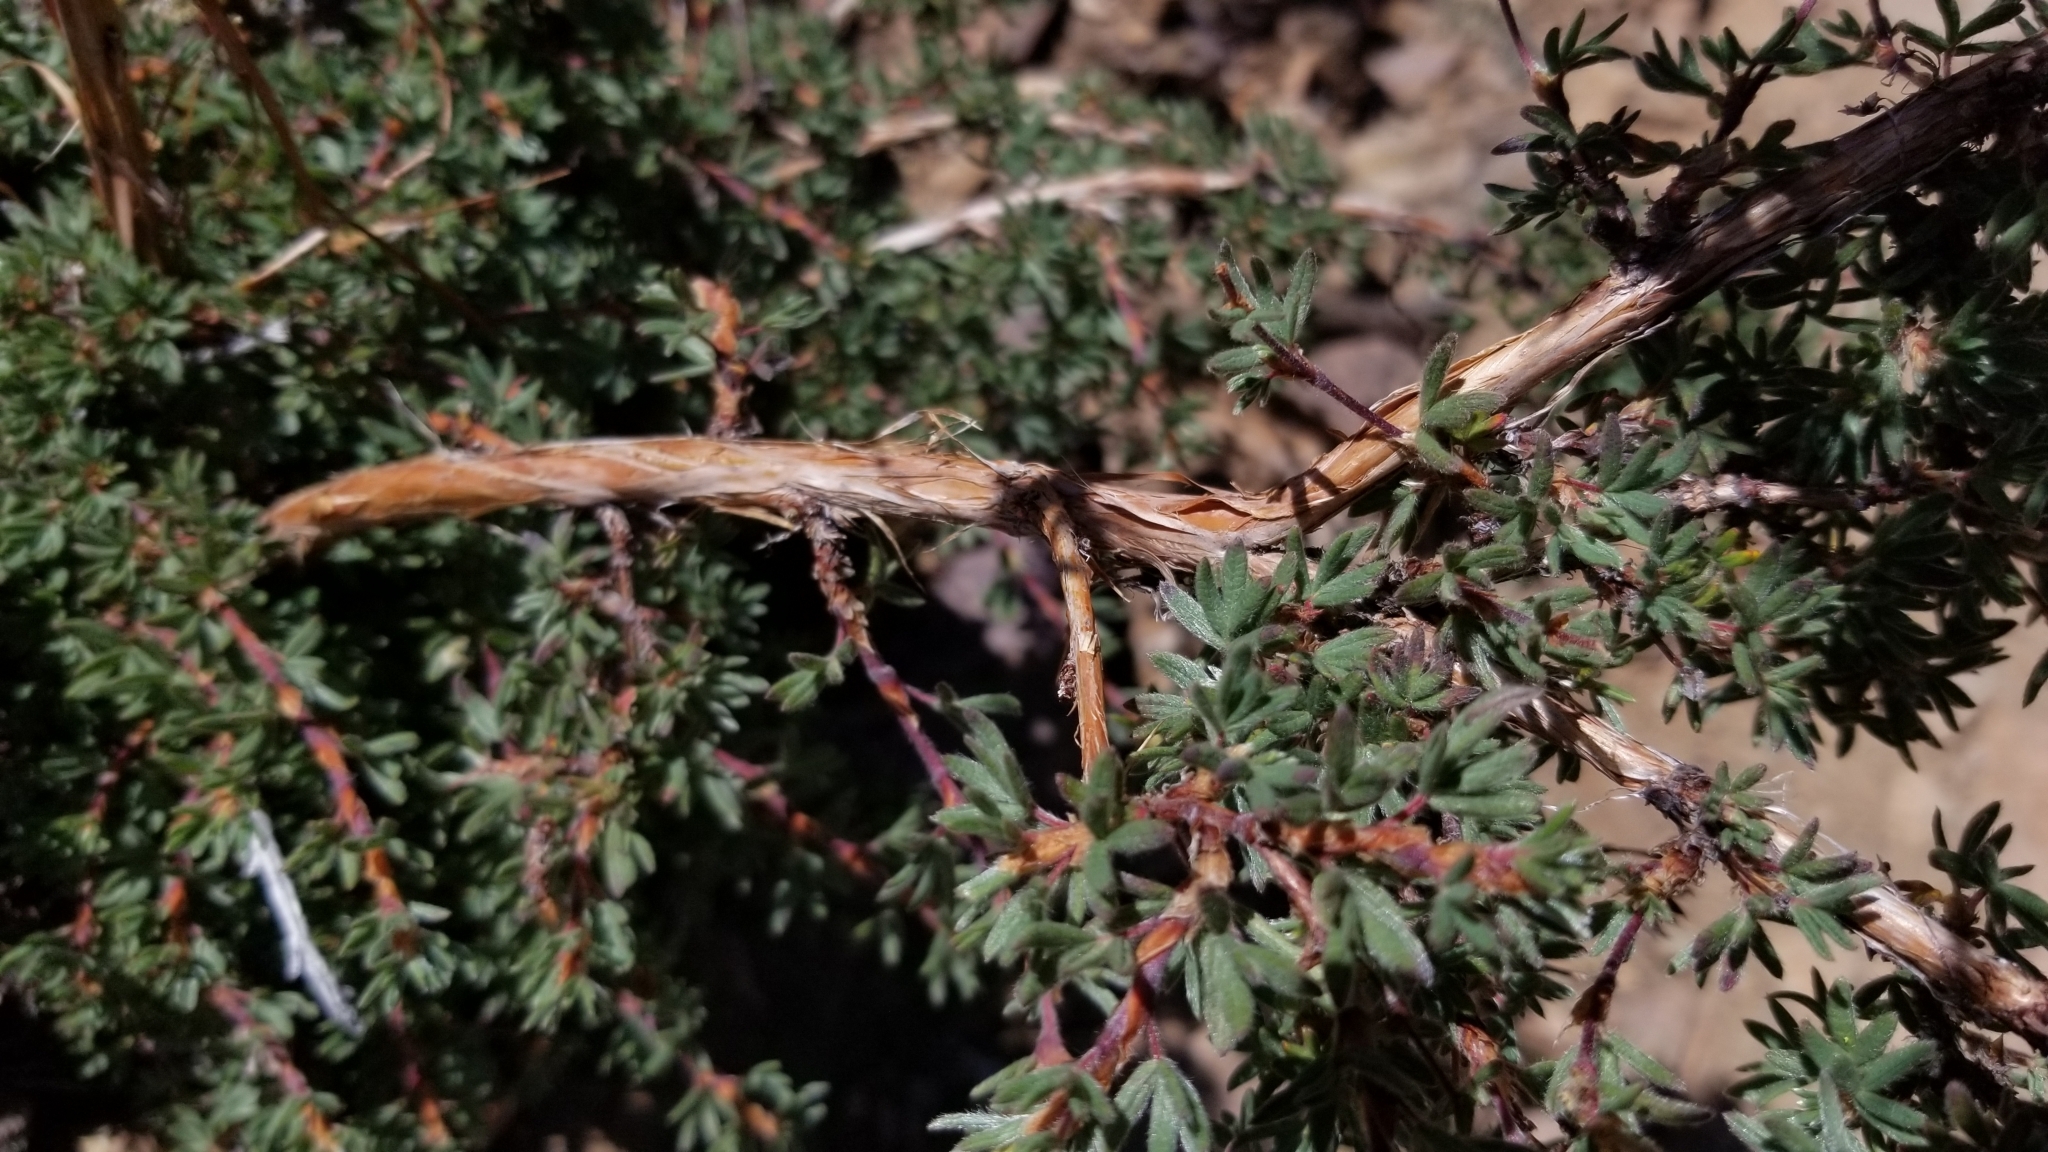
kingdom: Plantae
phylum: Tracheophyta
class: Magnoliopsida
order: Rosales
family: Rosaceae
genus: Dasiphora
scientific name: Dasiphora fruticosa
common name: Shrubby cinquefoil
